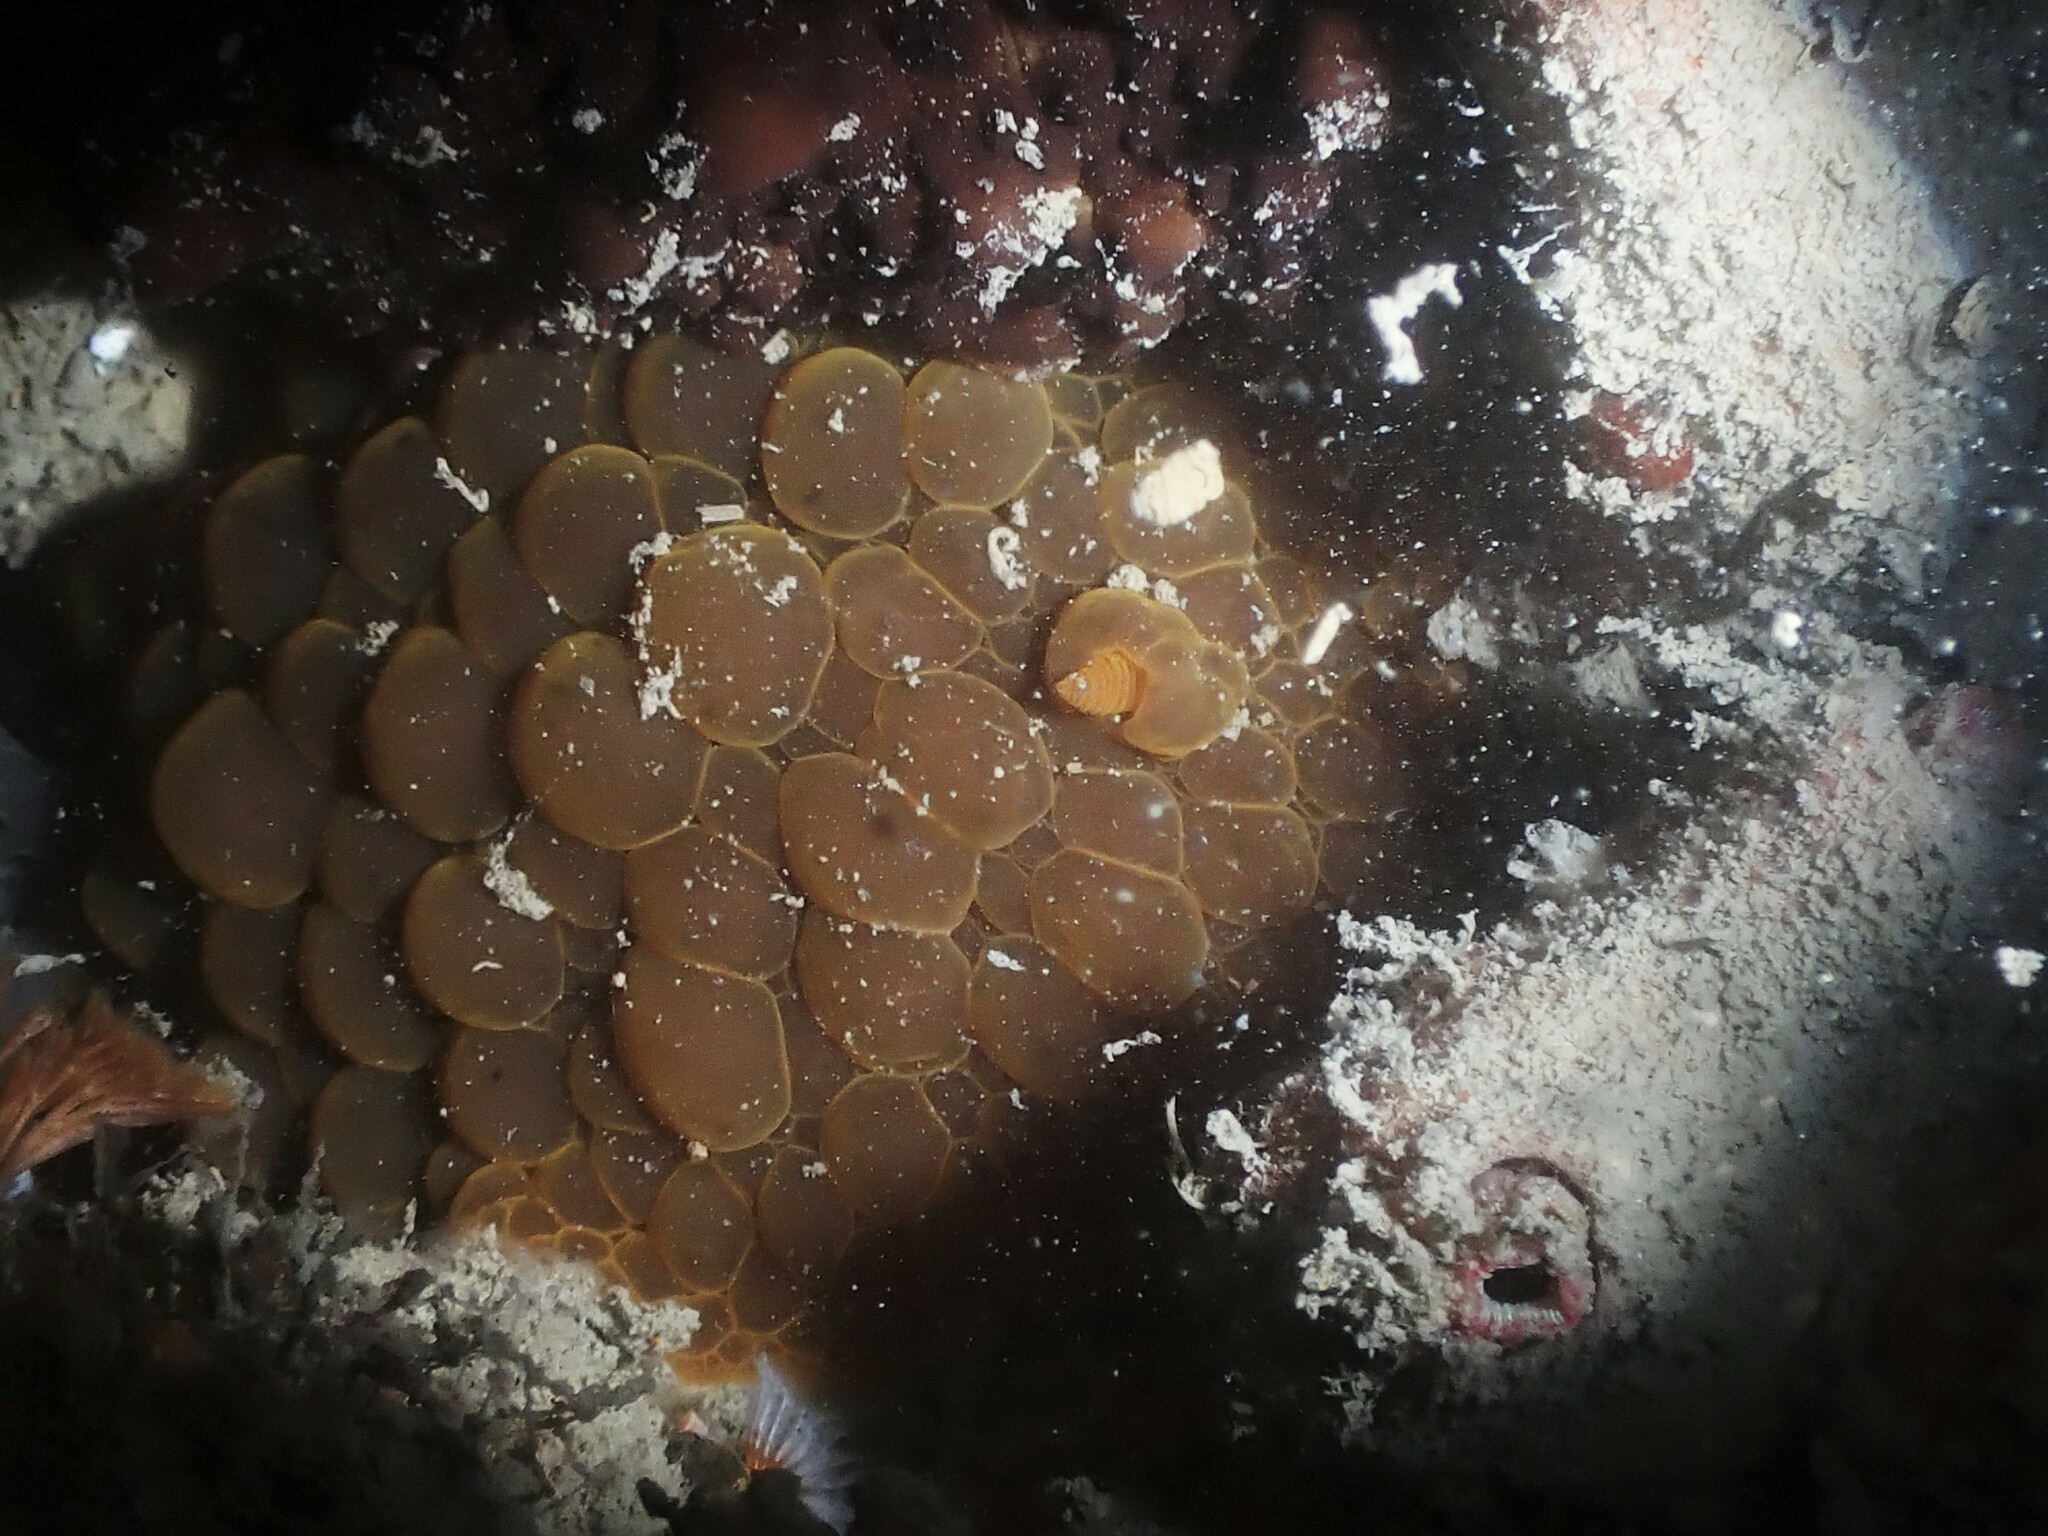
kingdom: Animalia
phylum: Mollusca
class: Gastropoda
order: Nudibranchia
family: Dorididae
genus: Doris
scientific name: Doris wellingtonensis
